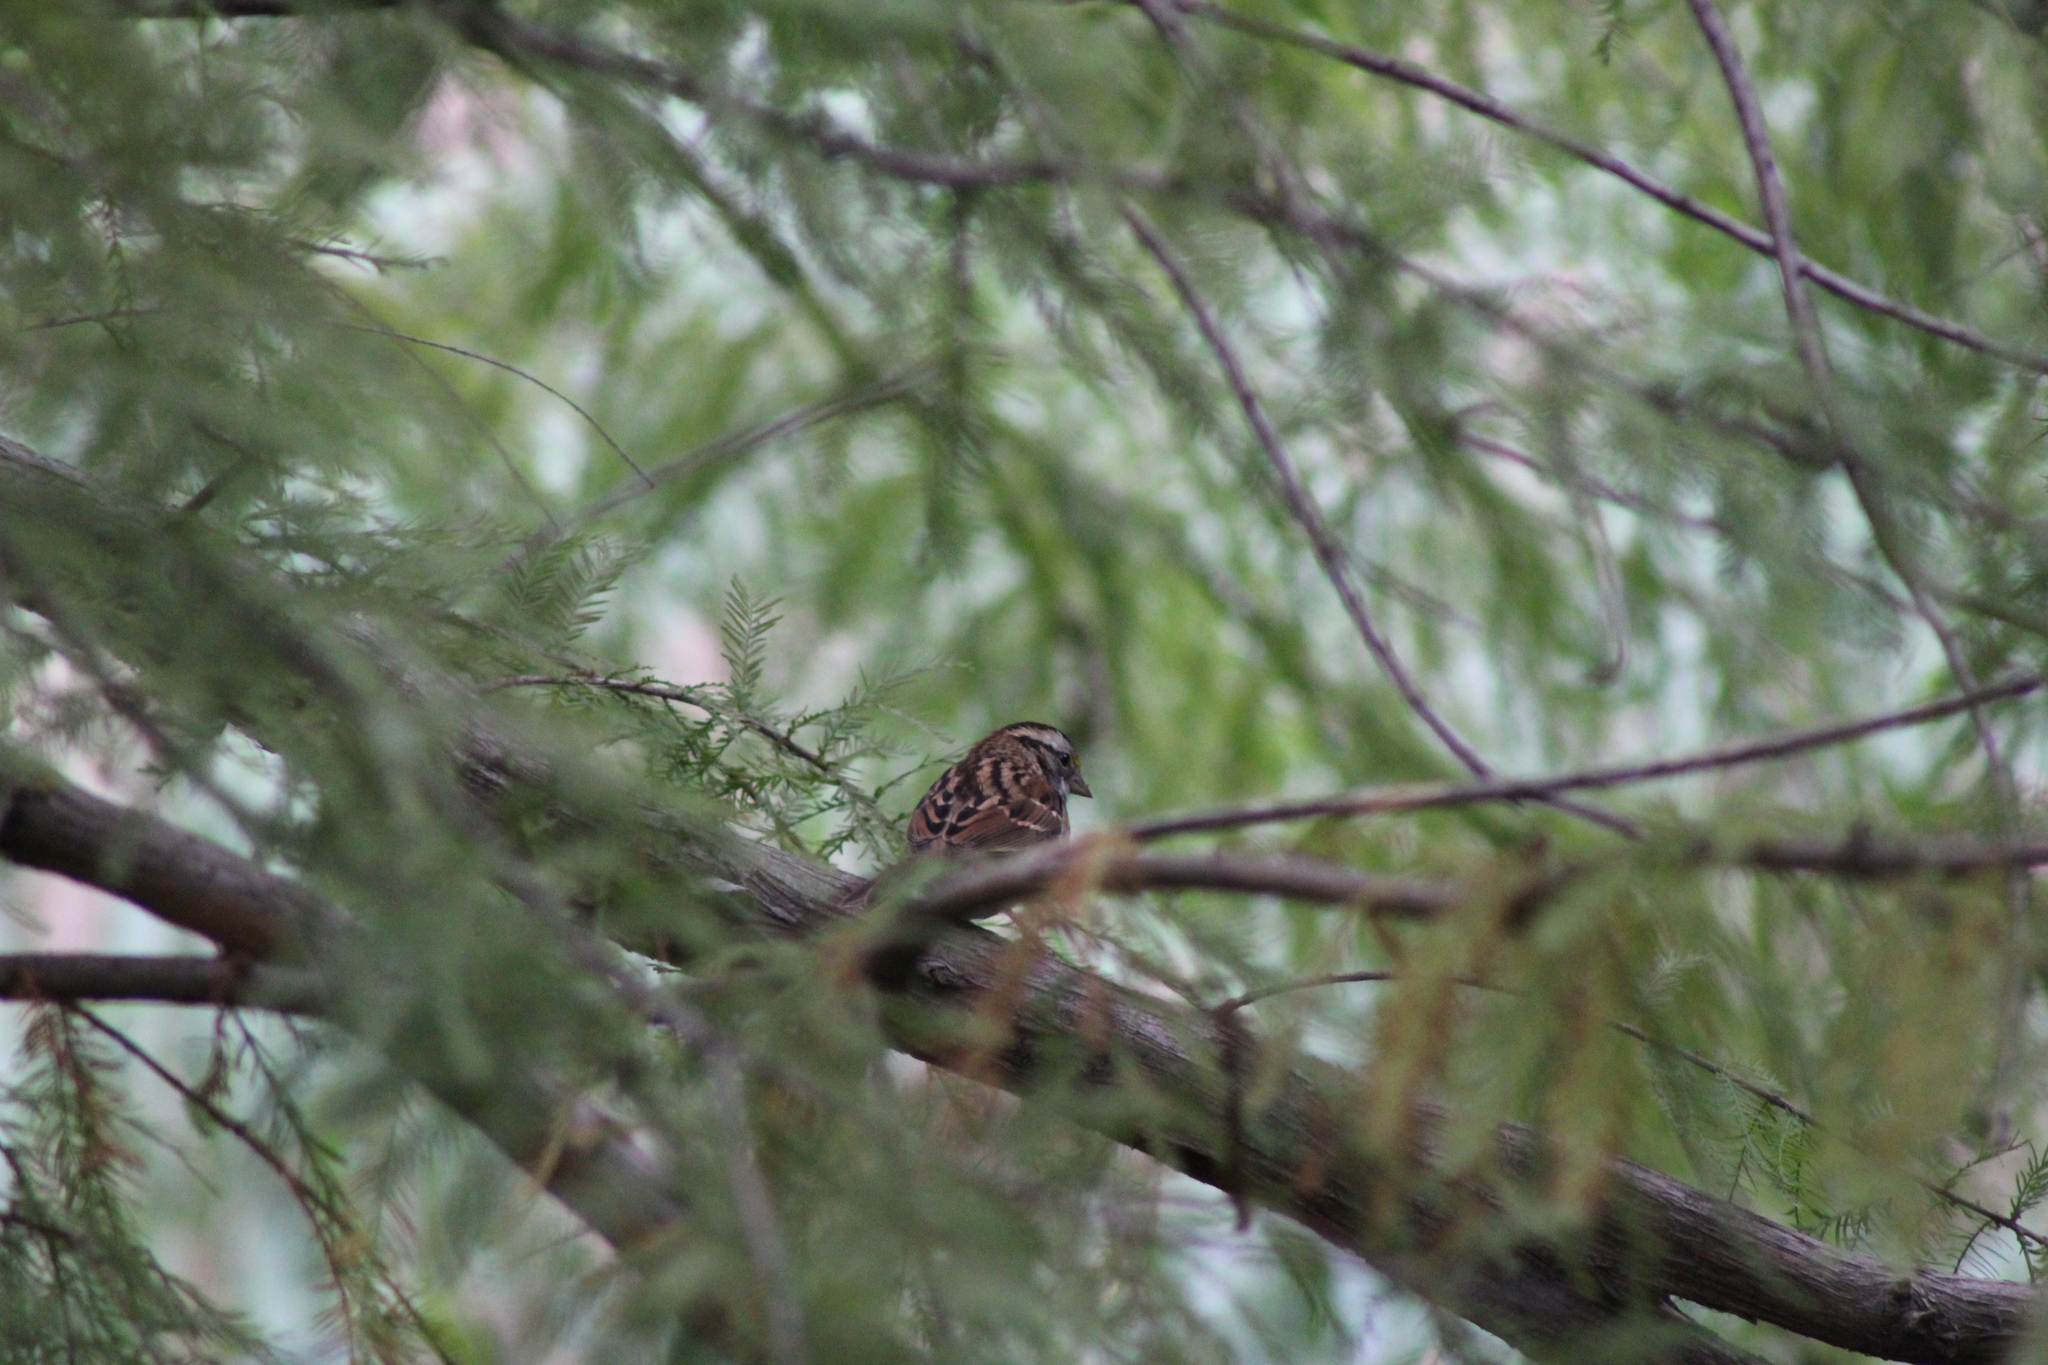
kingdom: Animalia
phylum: Chordata
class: Aves
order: Passeriformes
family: Passerellidae
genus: Zonotrichia
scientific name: Zonotrichia albicollis
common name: White-throated sparrow
